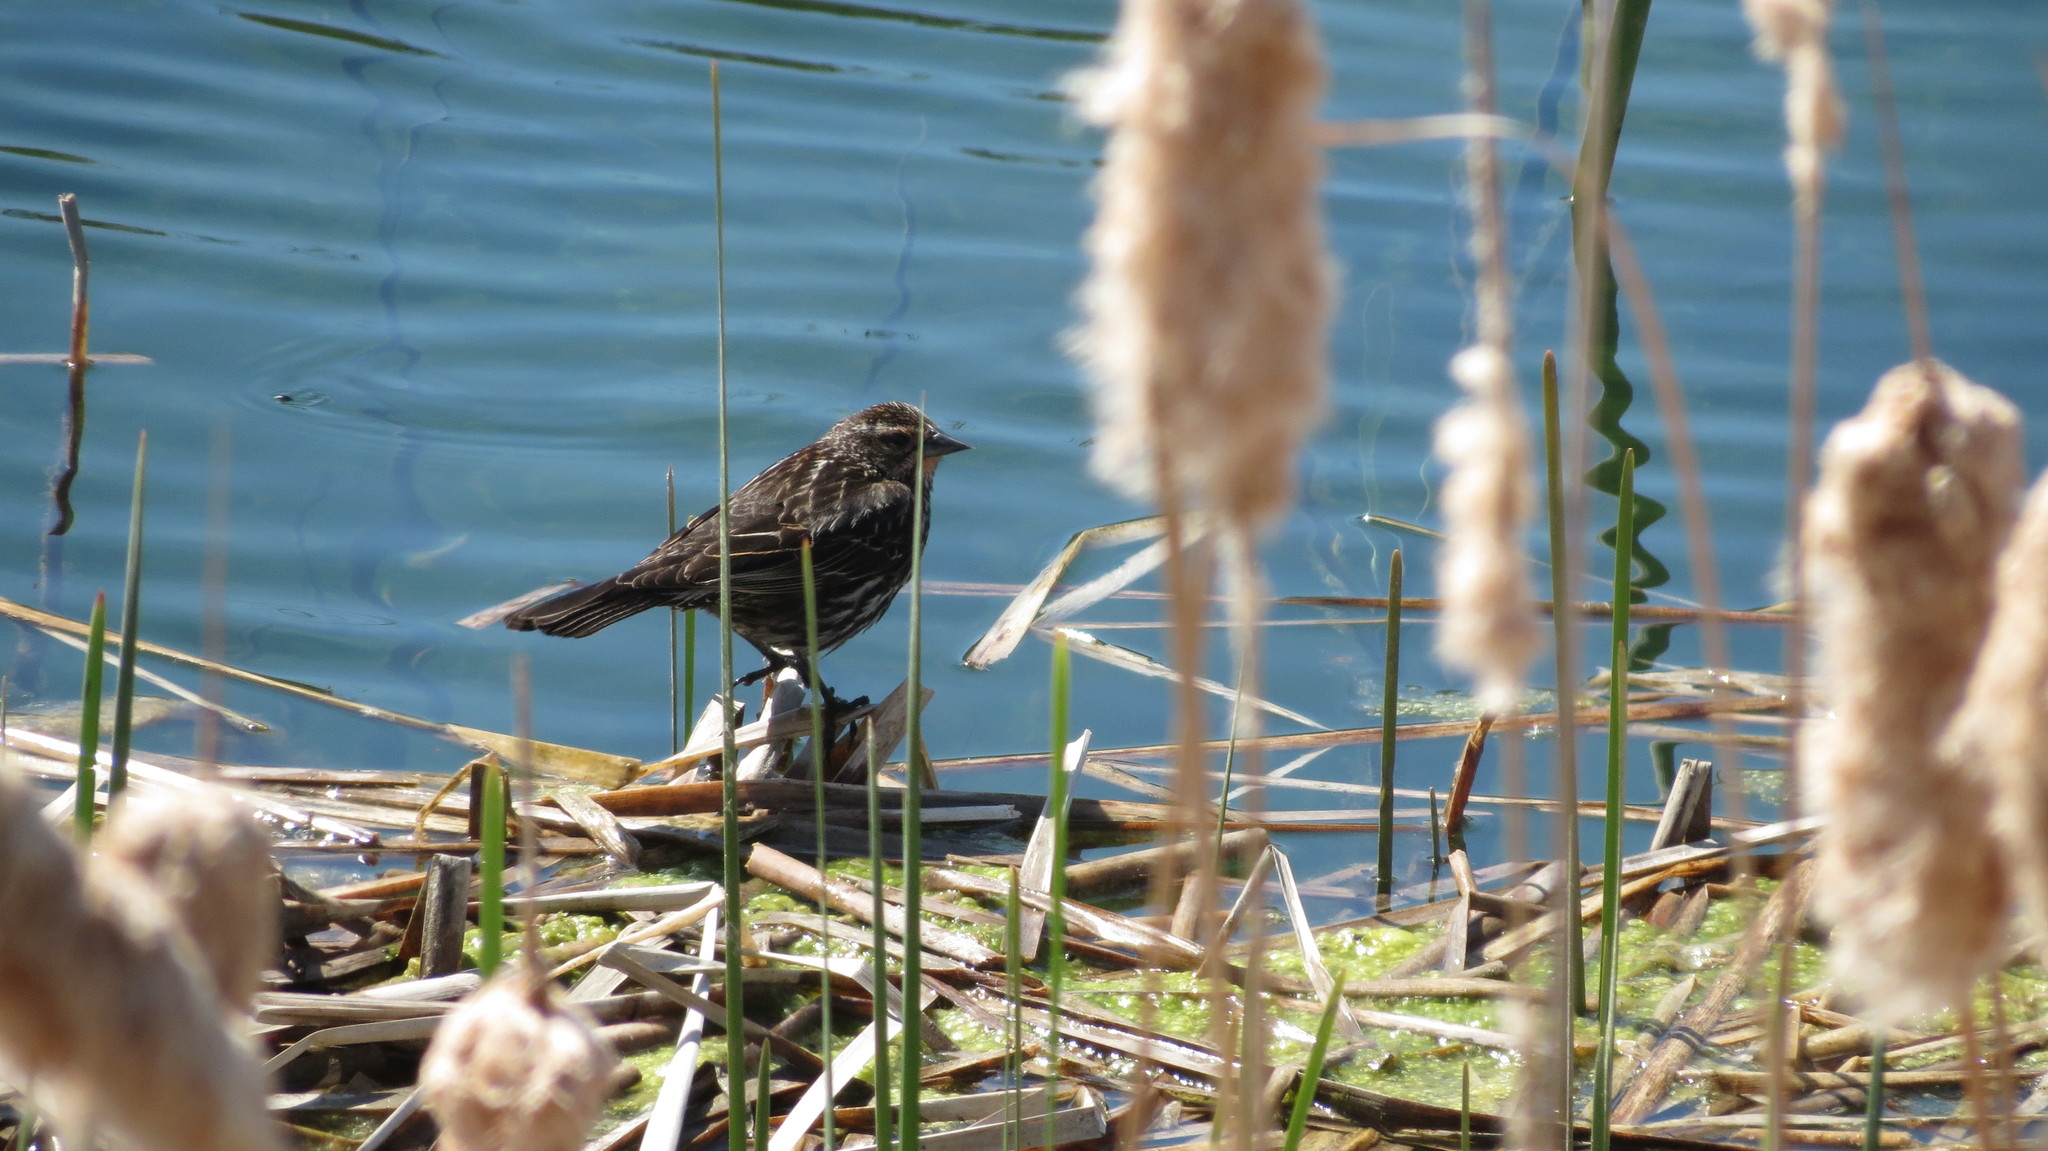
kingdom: Animalia
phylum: Chordata
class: Aves
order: Passeriformes
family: Icteridae
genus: Agelaius
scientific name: Agelaius phoeniceus
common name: Red-winged blackbird
